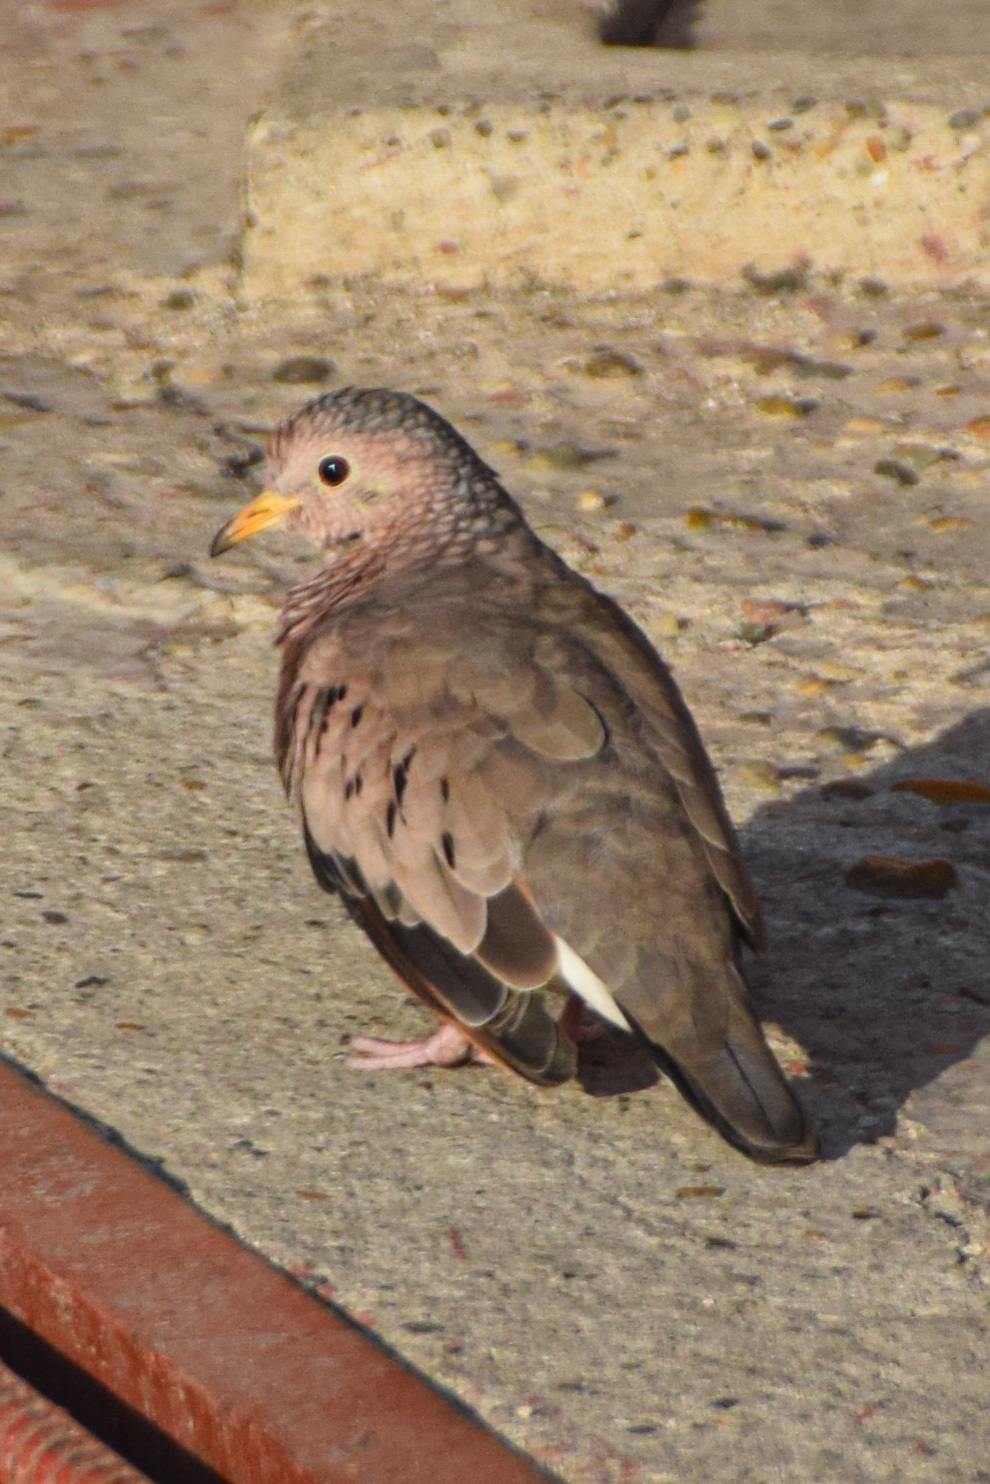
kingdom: Animalia
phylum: Chordata
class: Aves
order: Columbiformes
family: Columbidae
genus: Columbina
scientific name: Columbina passerina
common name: Common ground-dove
